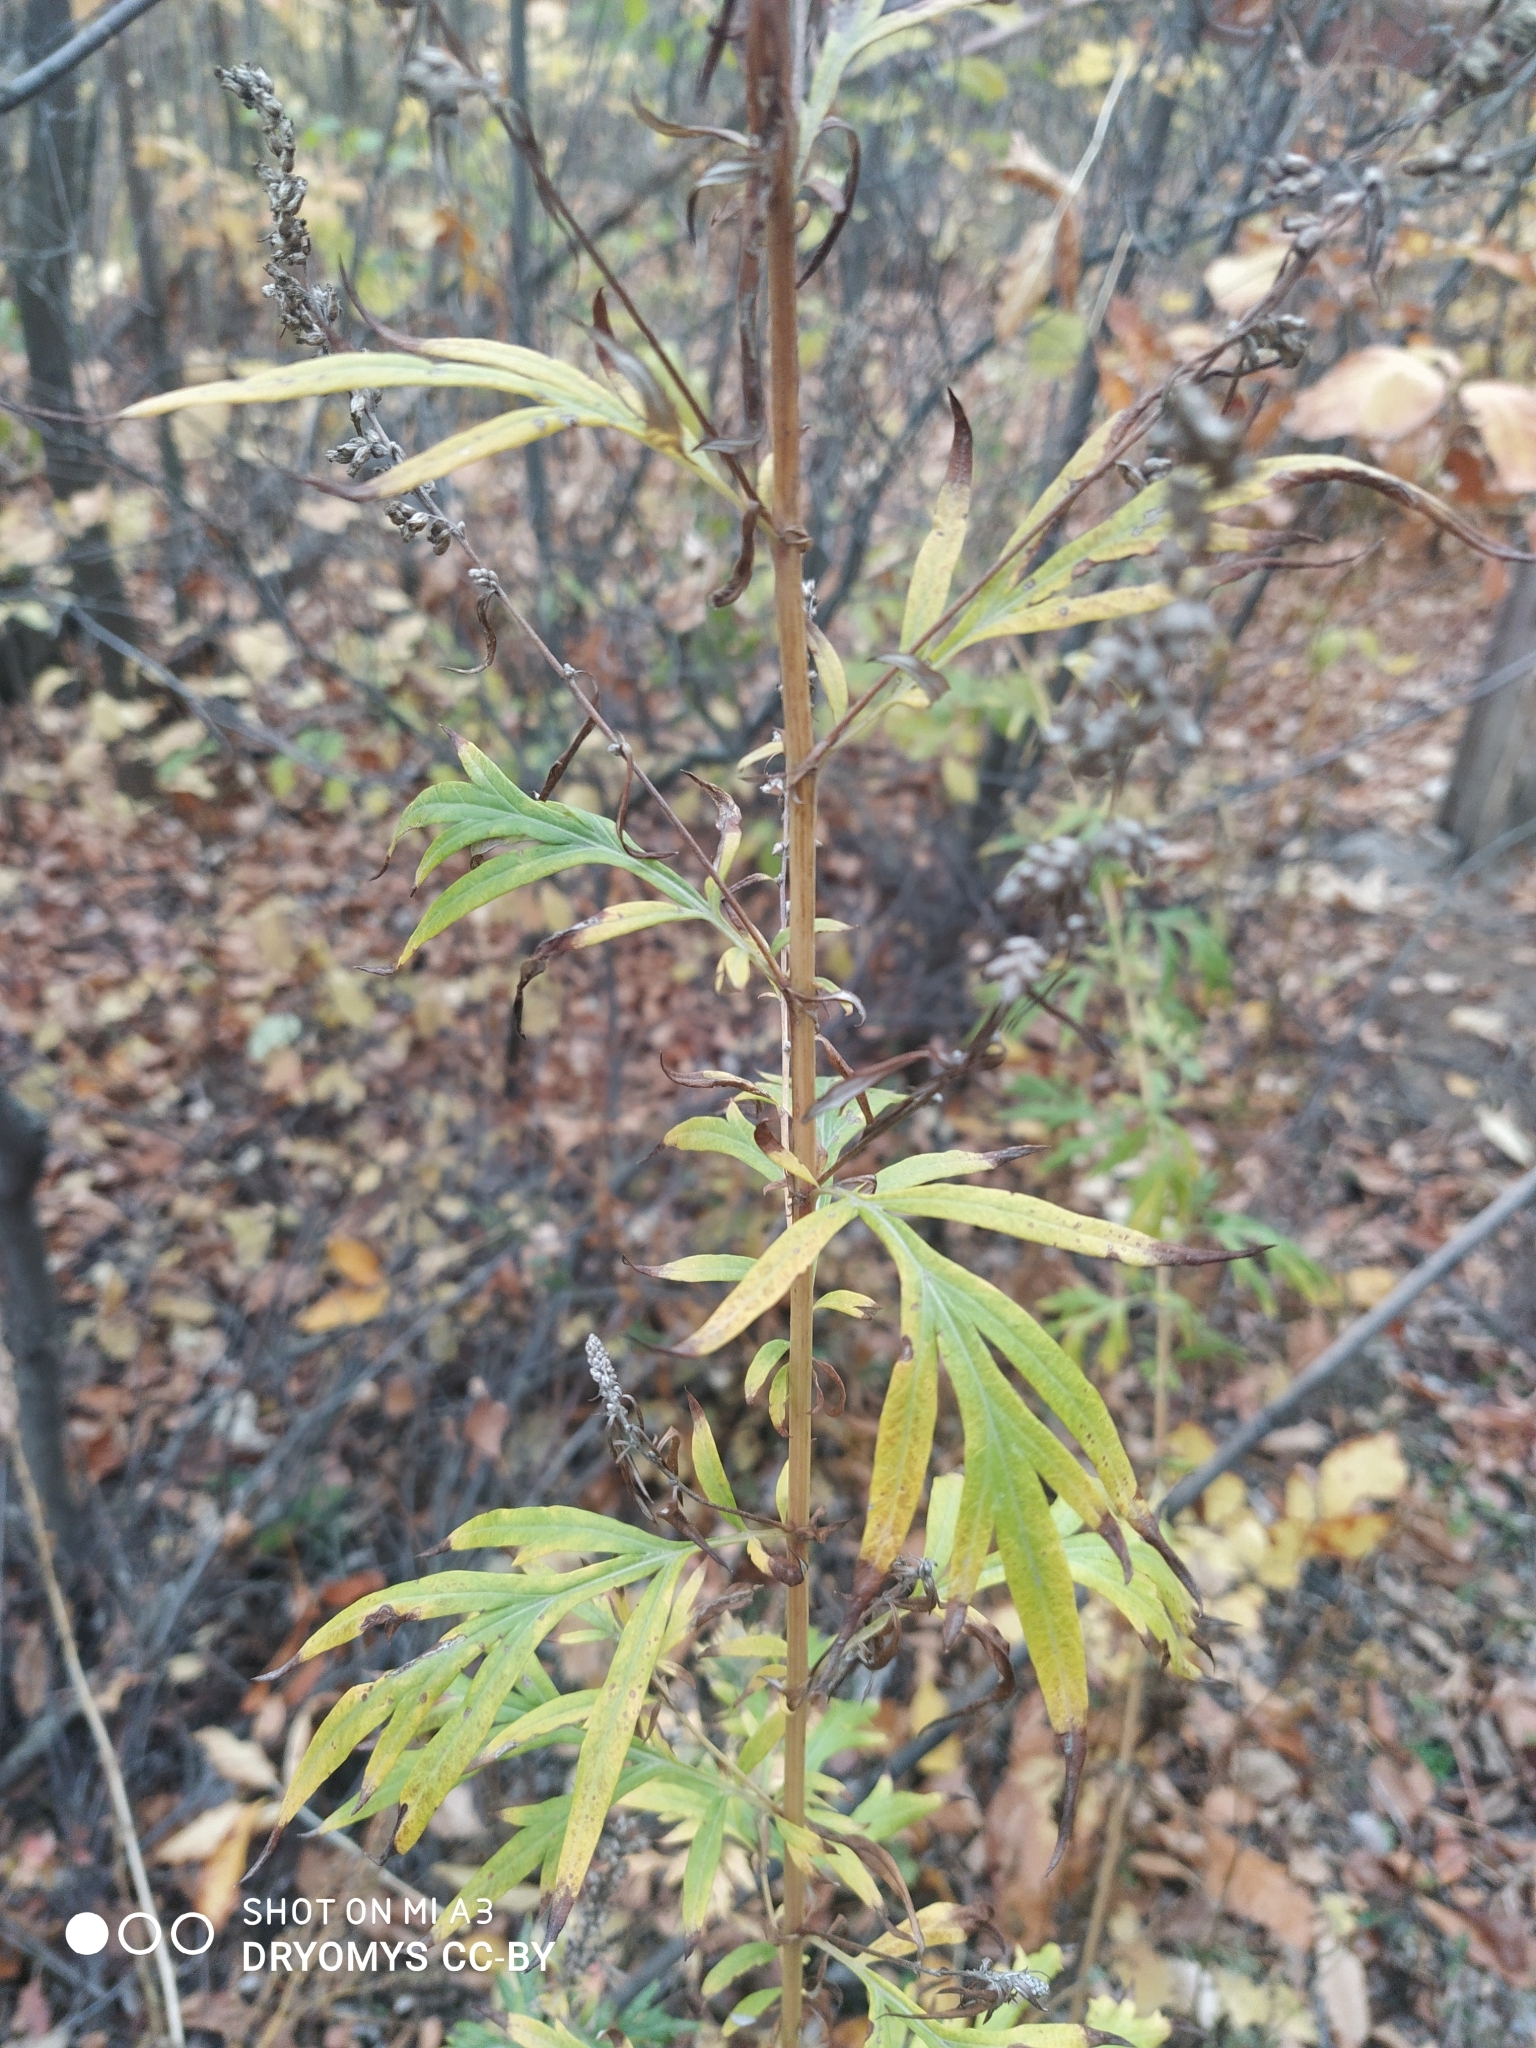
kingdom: Plantae
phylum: Tracheophyta
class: Magnoliopsida
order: Asterales
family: Asteraceae
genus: Artemisia
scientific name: Artemisia vulgaris
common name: Mugwort
